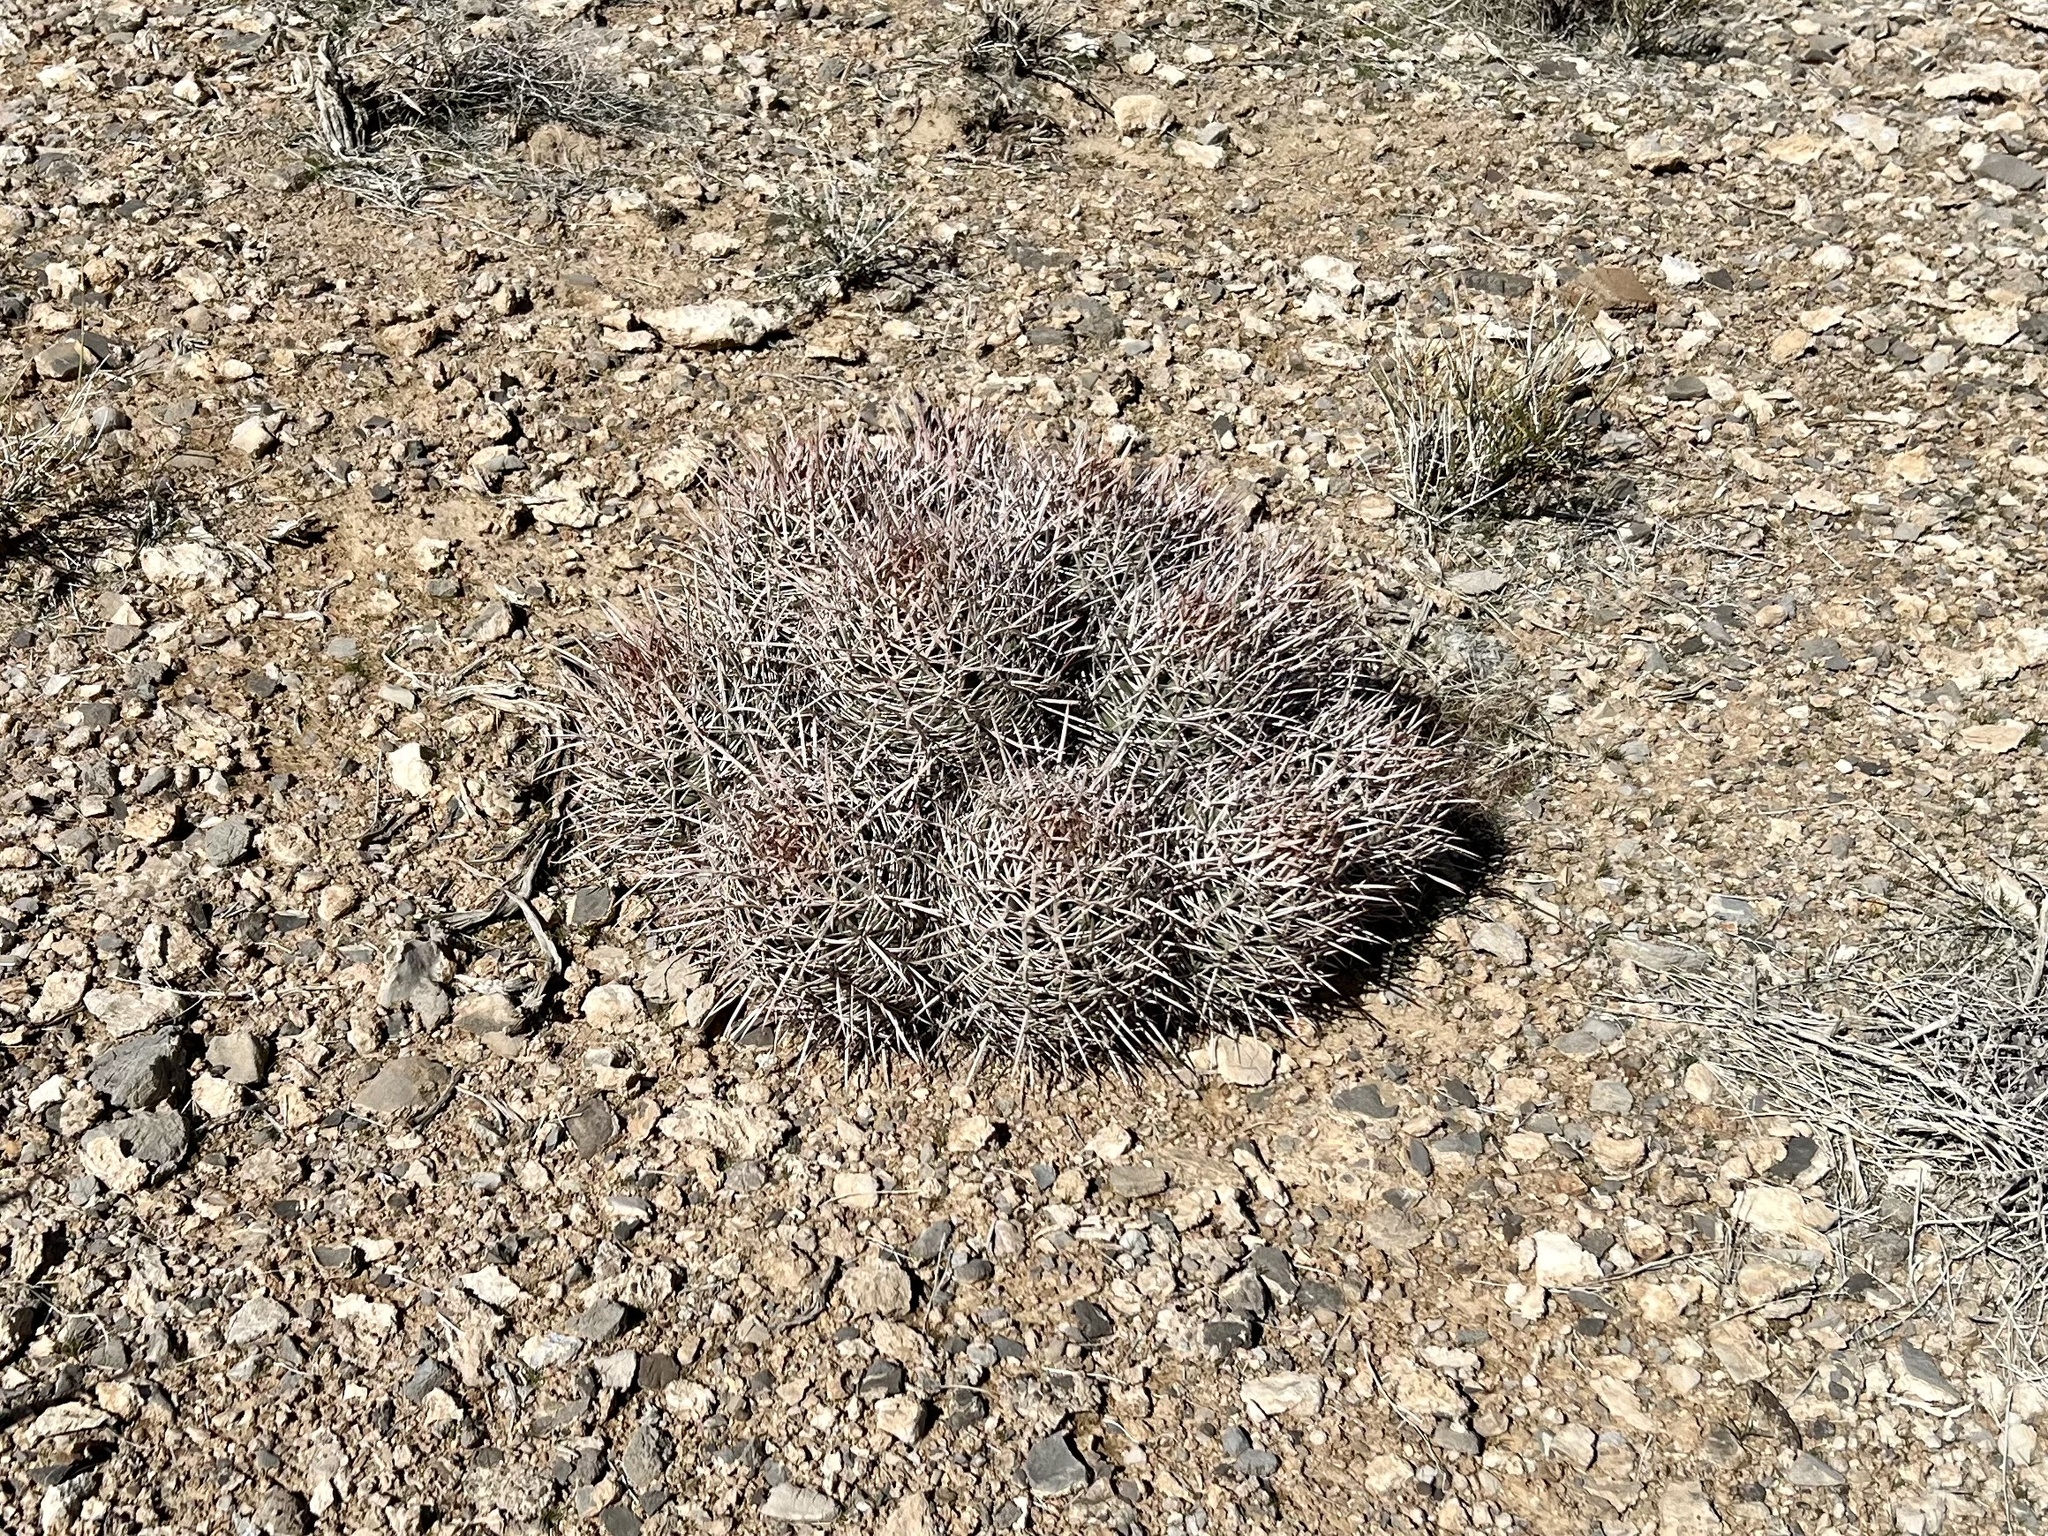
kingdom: Plantae
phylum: Tracheophyta
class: Magnoliopsida
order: Caryophyllales
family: Cactaceae
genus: Echinocactus
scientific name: Echinocactus polycephalus
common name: Cottontop cactus
